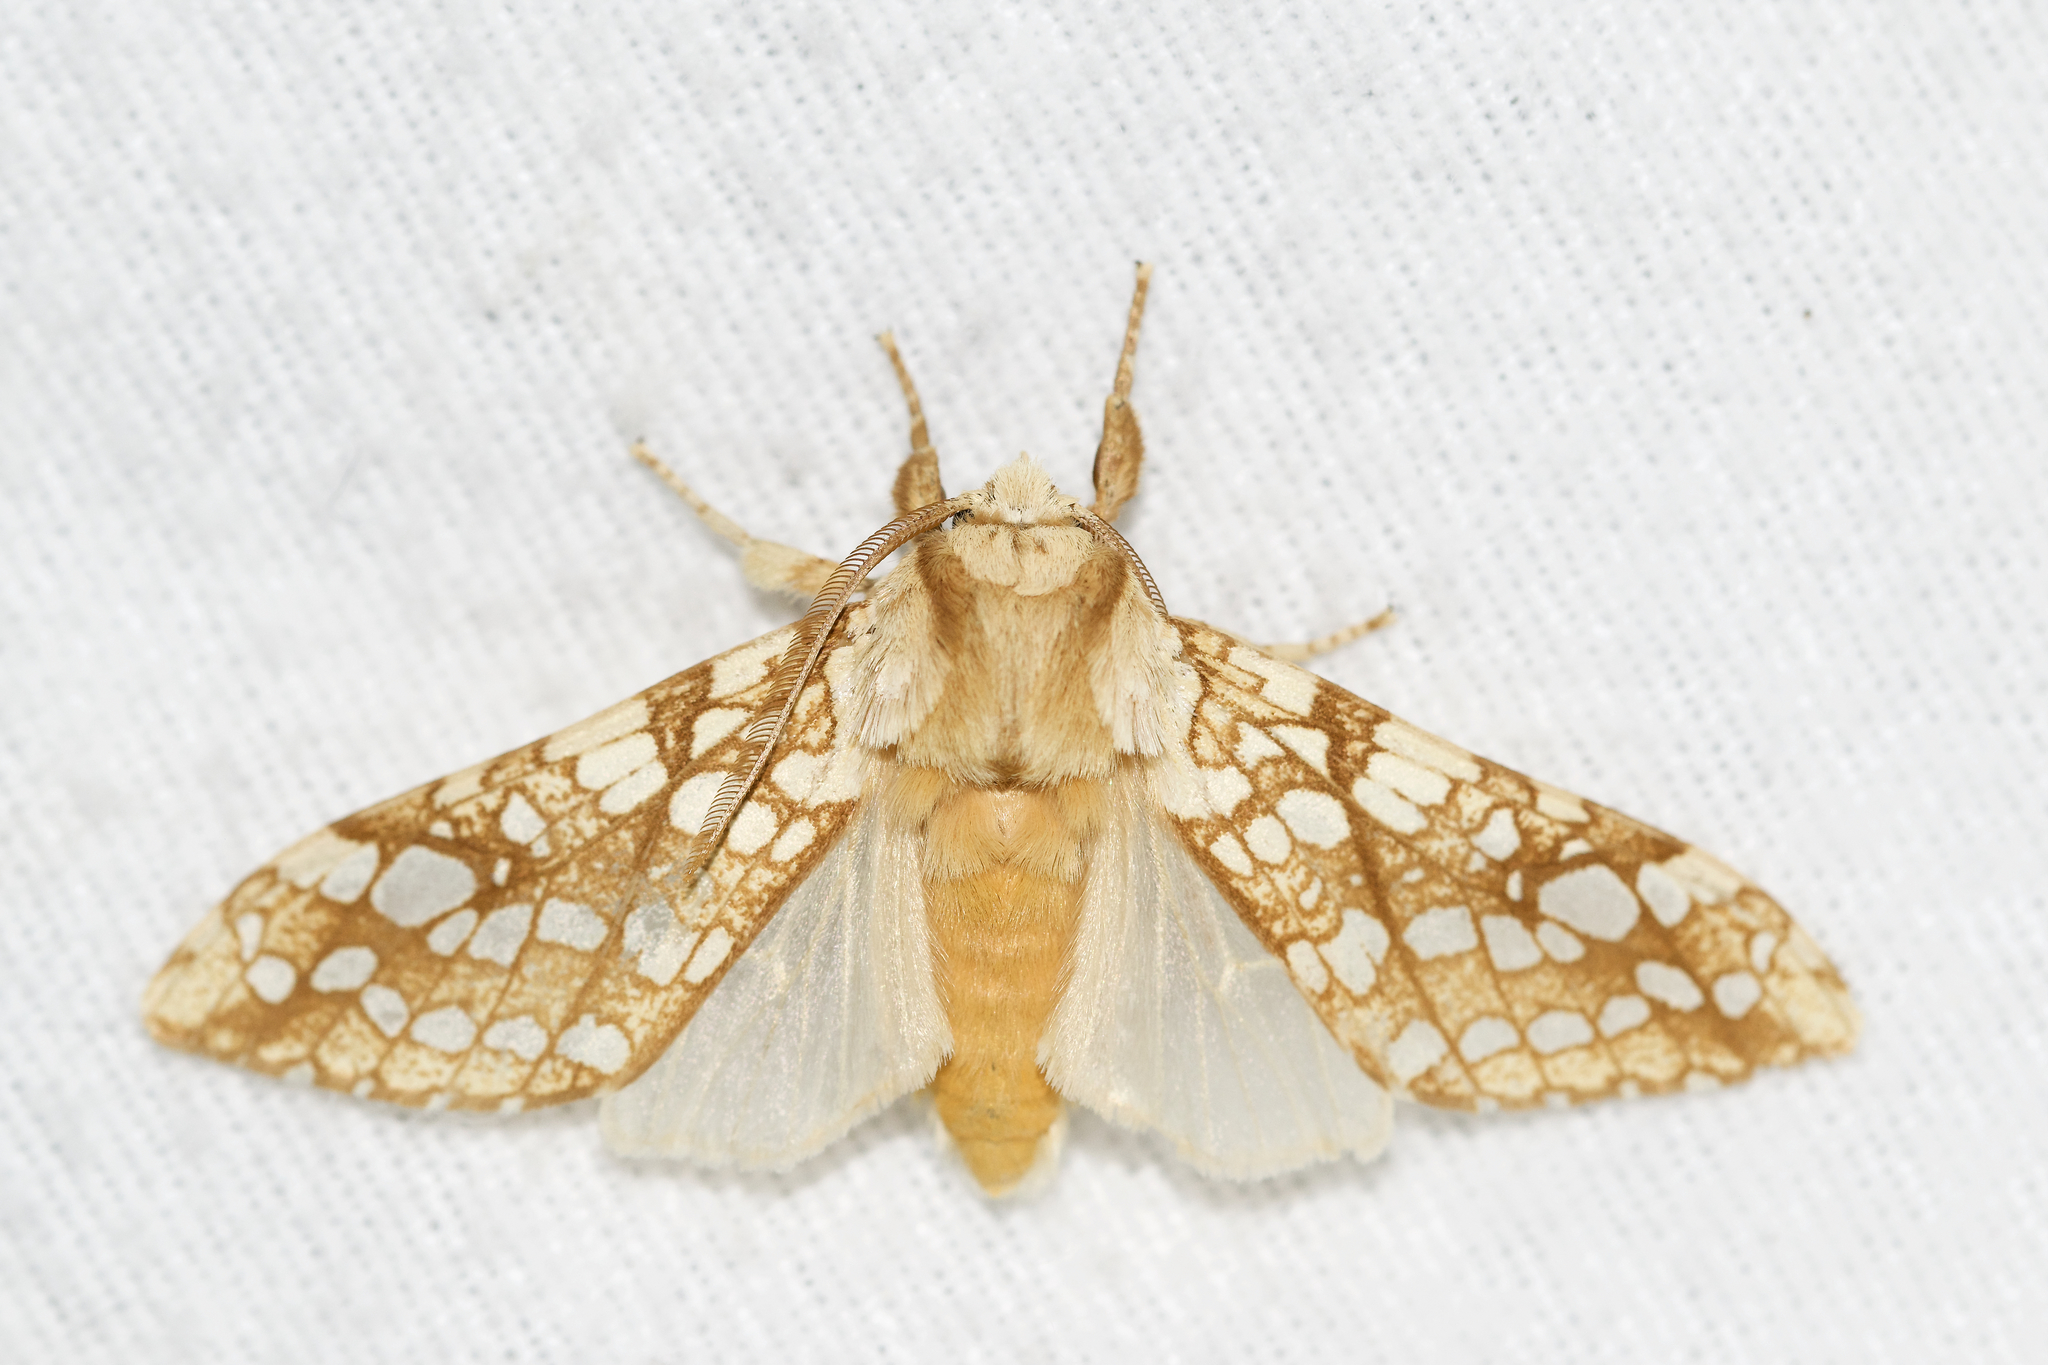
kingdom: Animalia
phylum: Arthropoda
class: Insecta
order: Lepidoptera
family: Erebidae
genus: Lophocampa
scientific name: Lophocampa caryae
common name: Hickory tussock moth
